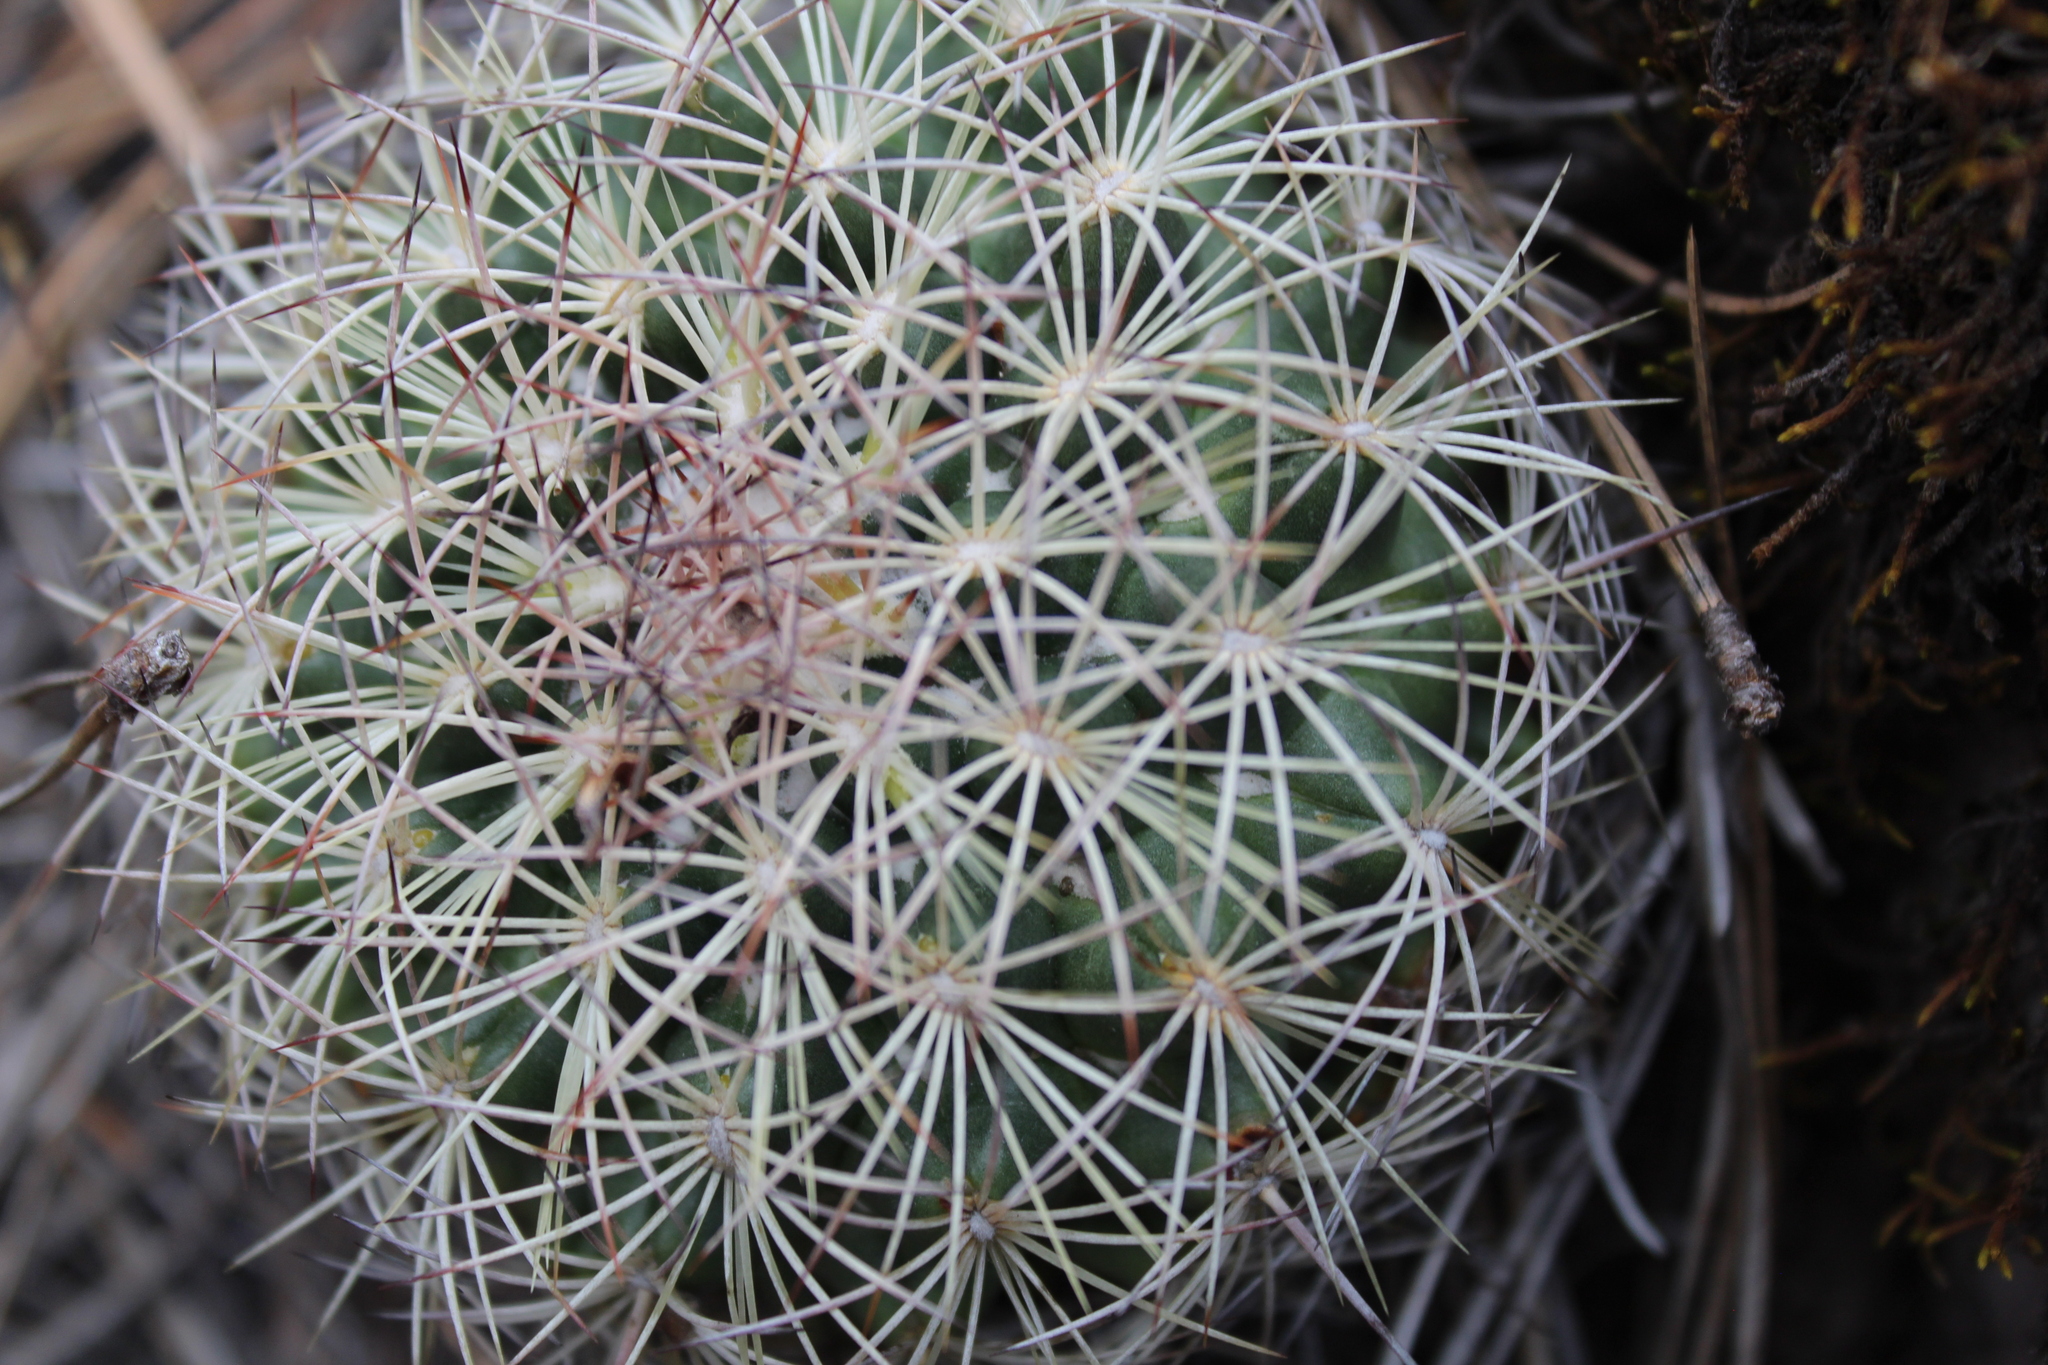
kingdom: Plantae
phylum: Tracheophyta
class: Magnoliopsida
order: Caryophyllales
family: Cactaceae
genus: Coryphantha
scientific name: Coryphantha compacta
